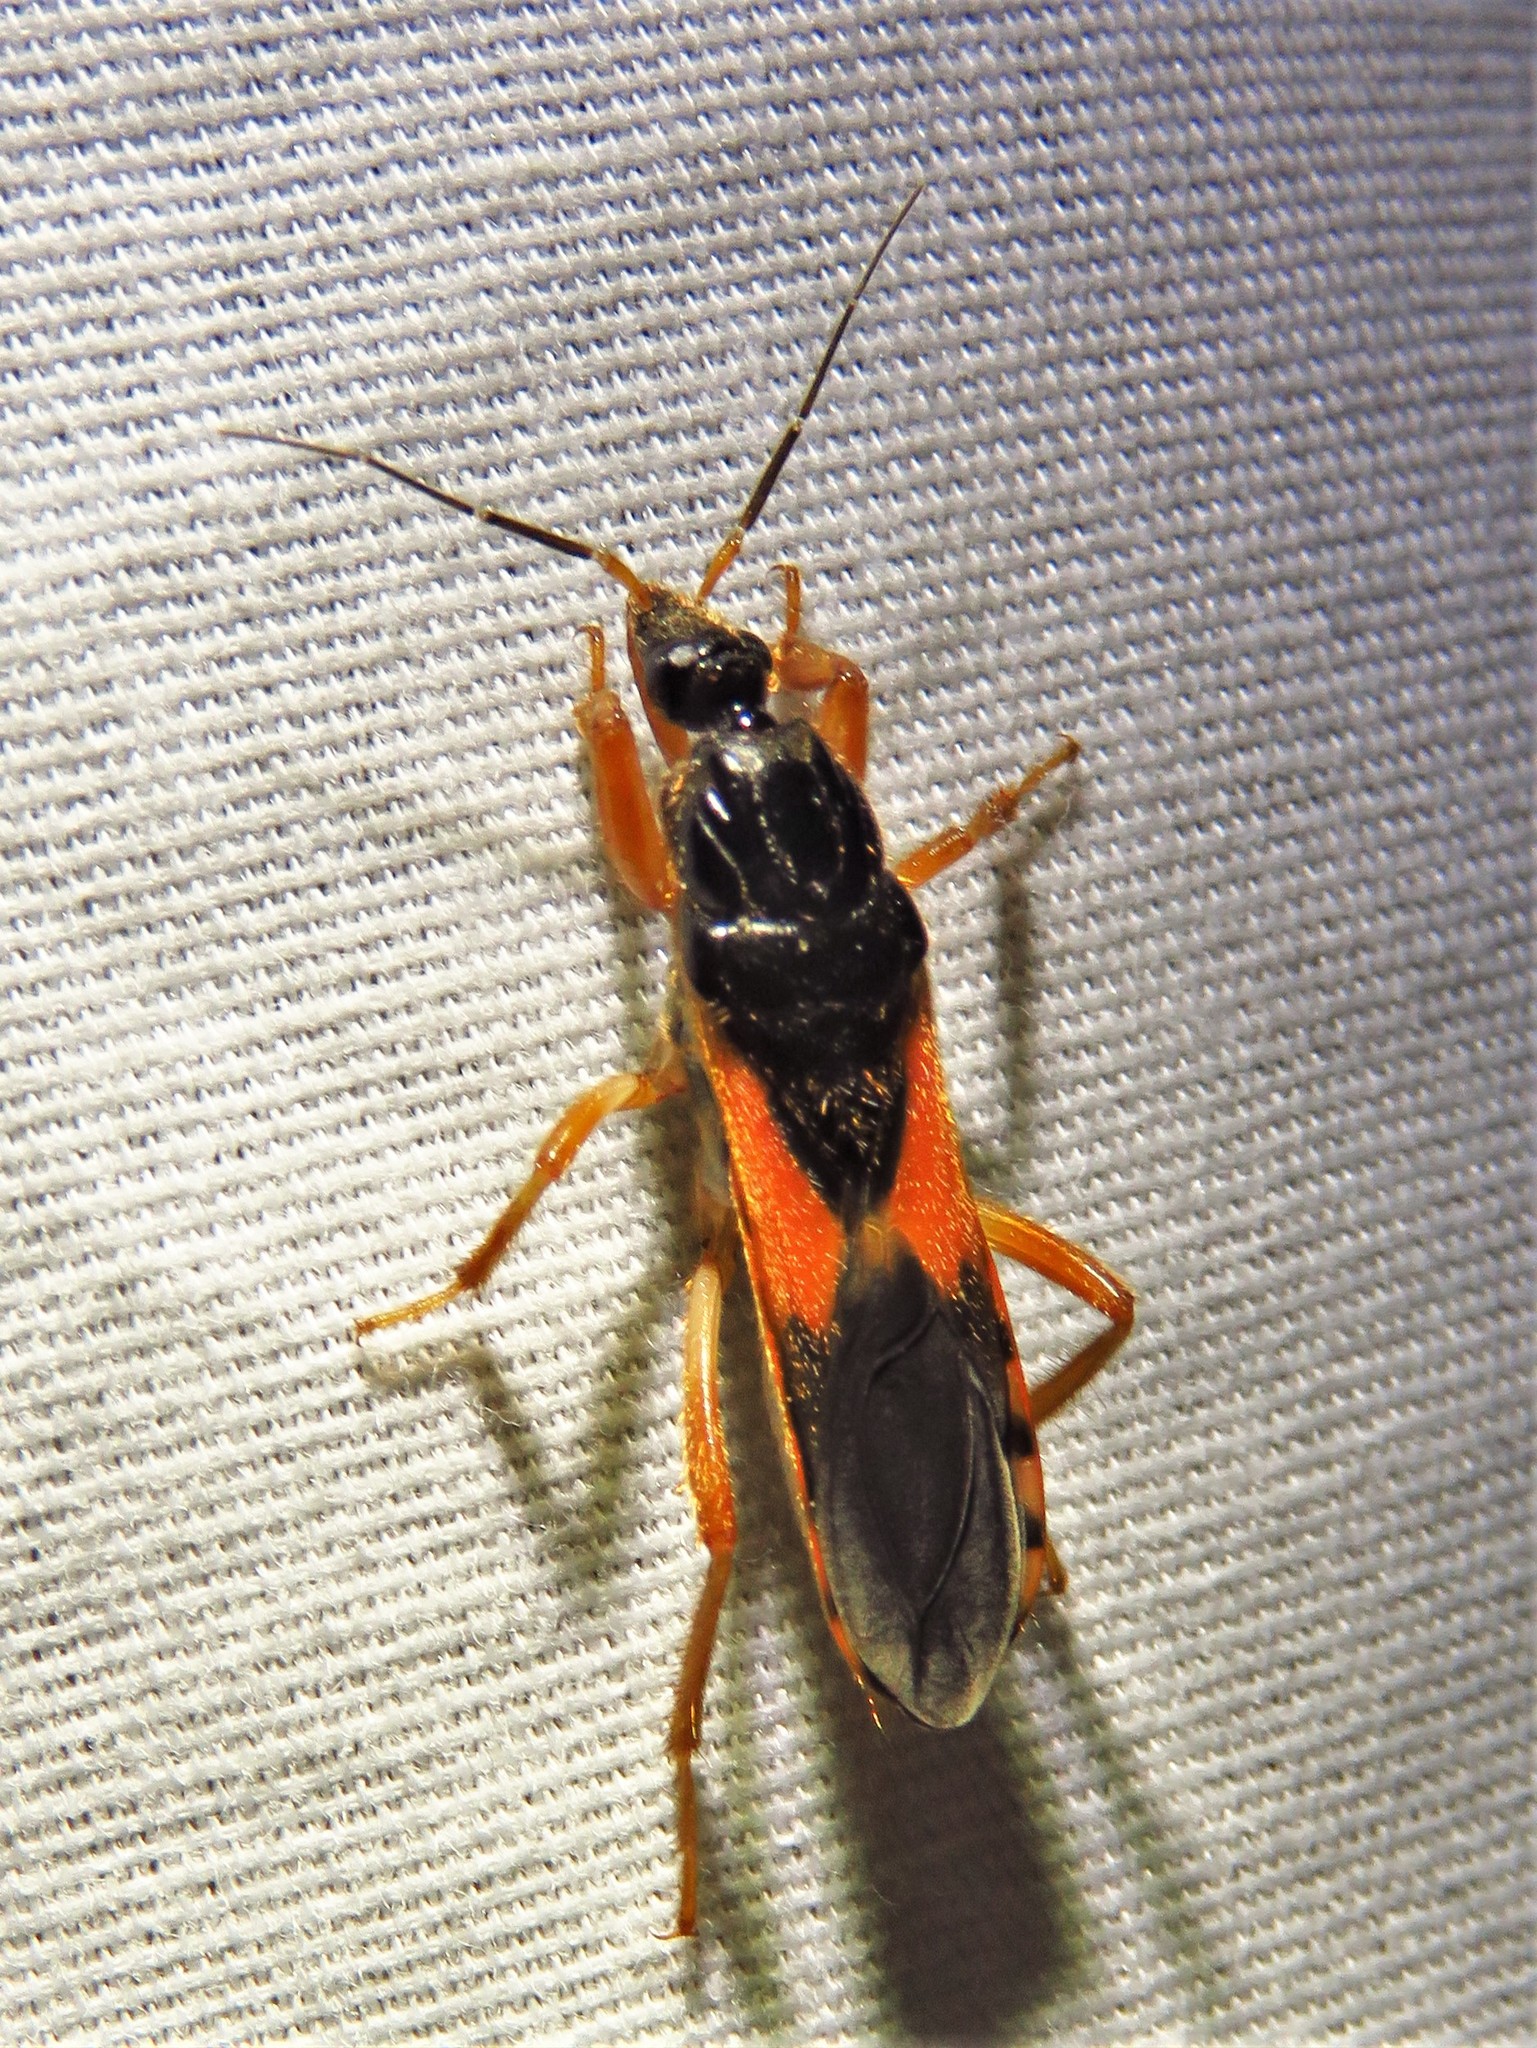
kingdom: Animalia
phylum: Arthropoda
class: Insecta
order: Hemiptera
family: Reduviidae
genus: Sirthenea
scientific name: Sirthenea stria
